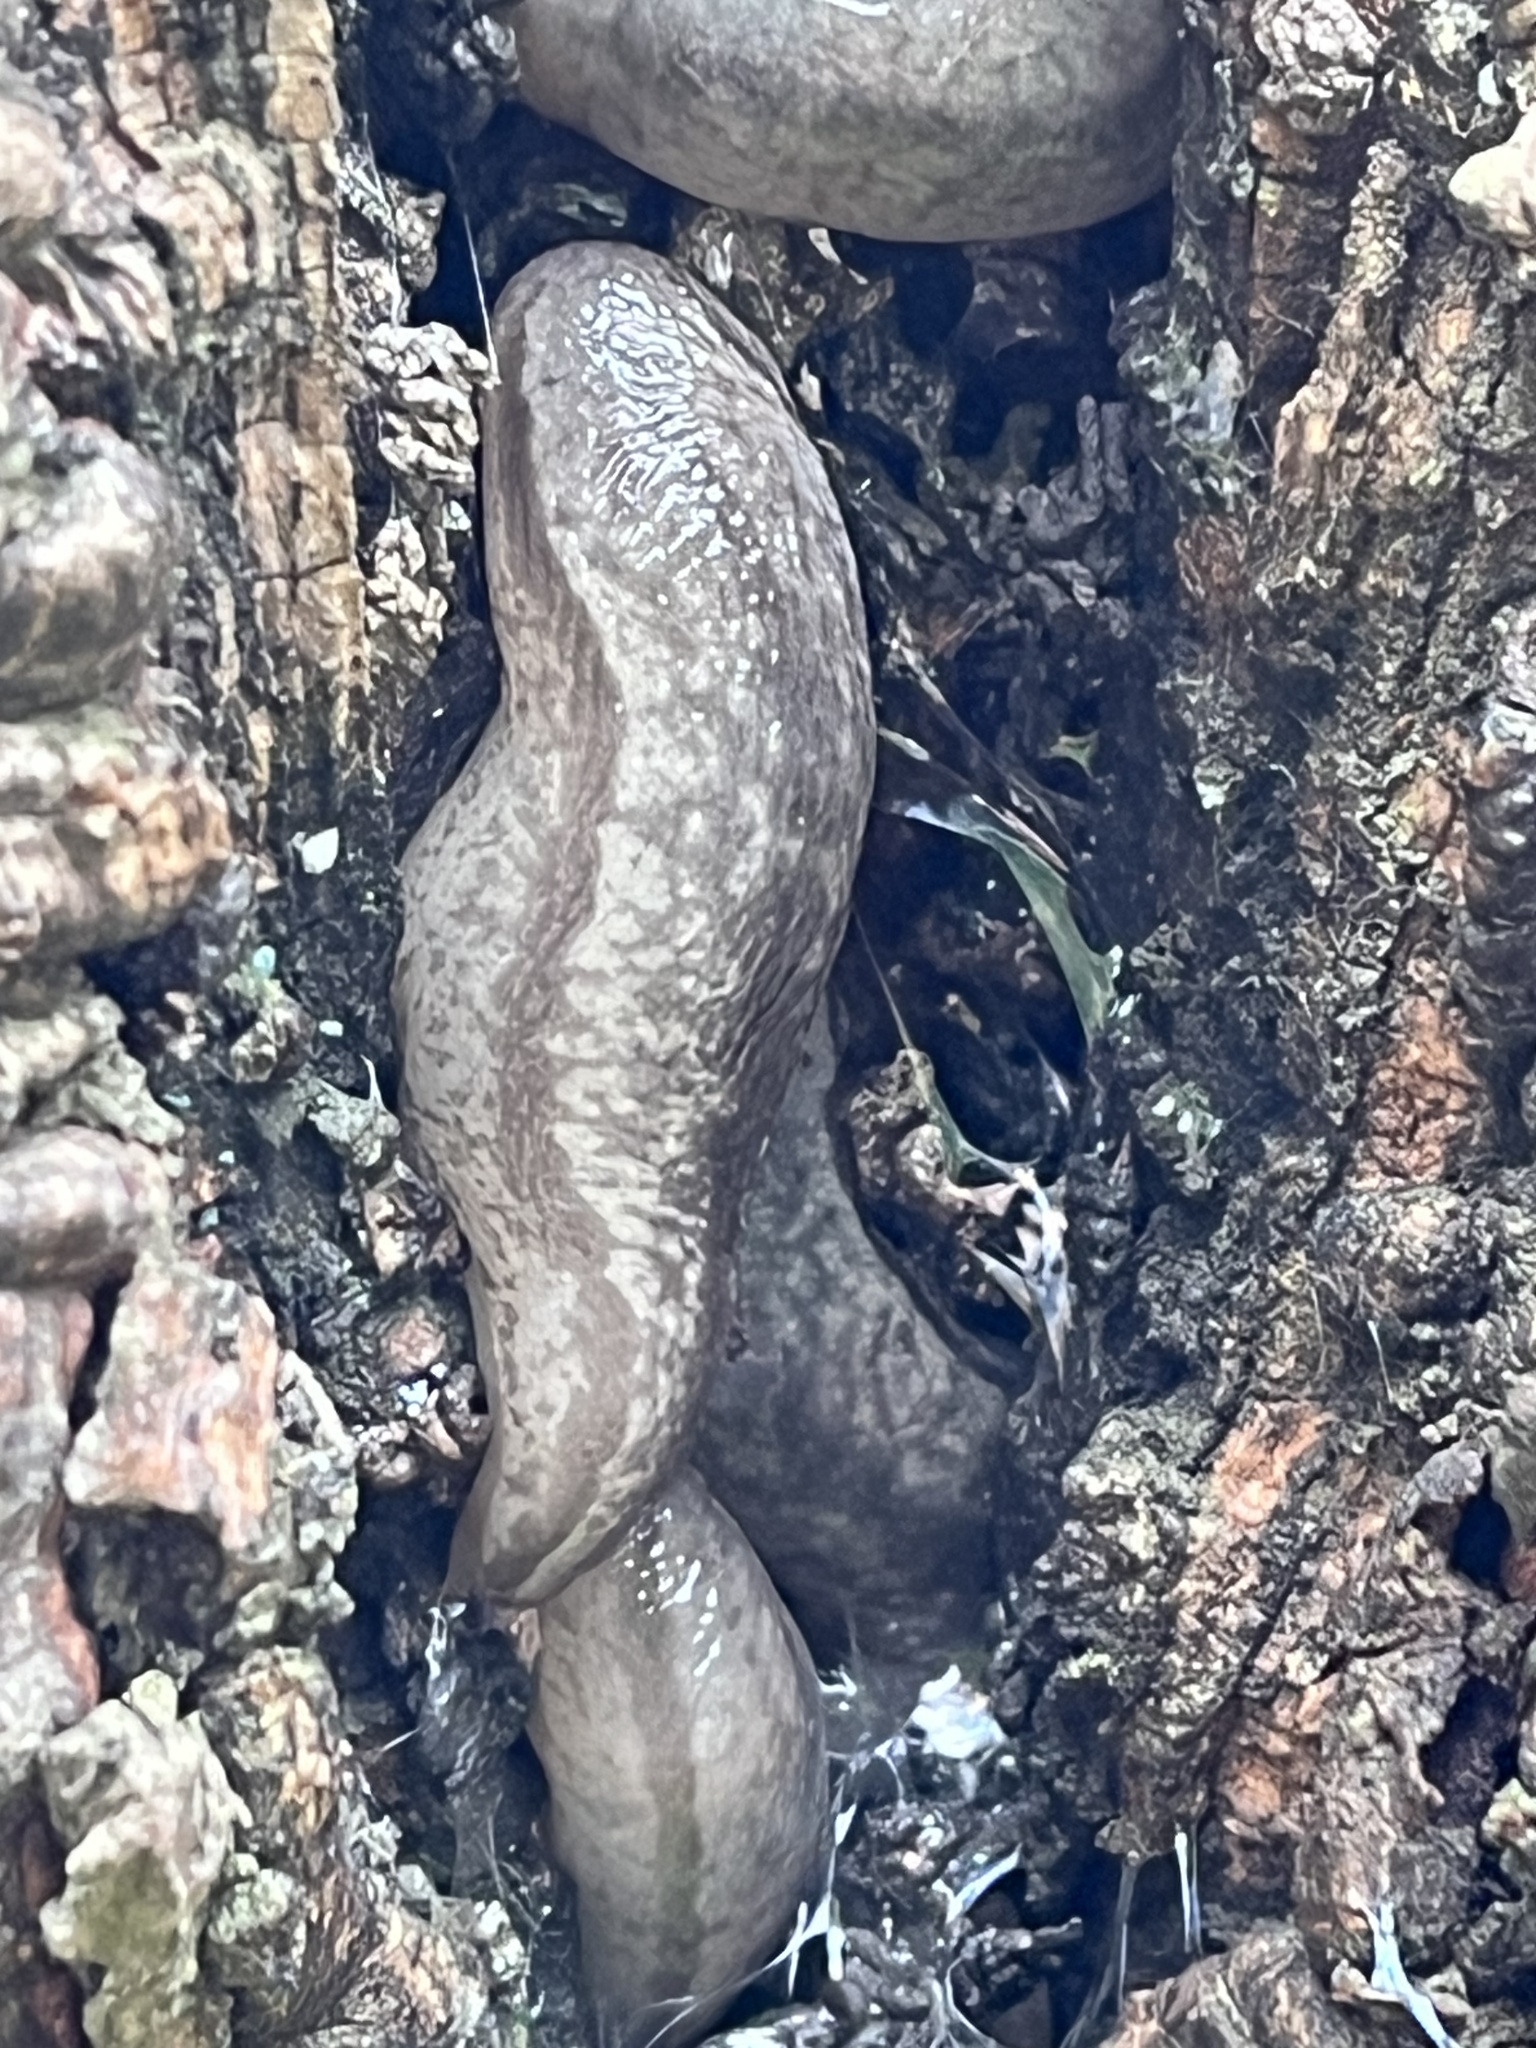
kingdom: Animalia
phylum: Mollusca
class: Gastropoda
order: Stylommatophora
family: Philomycidae
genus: Meghimatium
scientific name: Meghimatium bilineatum
